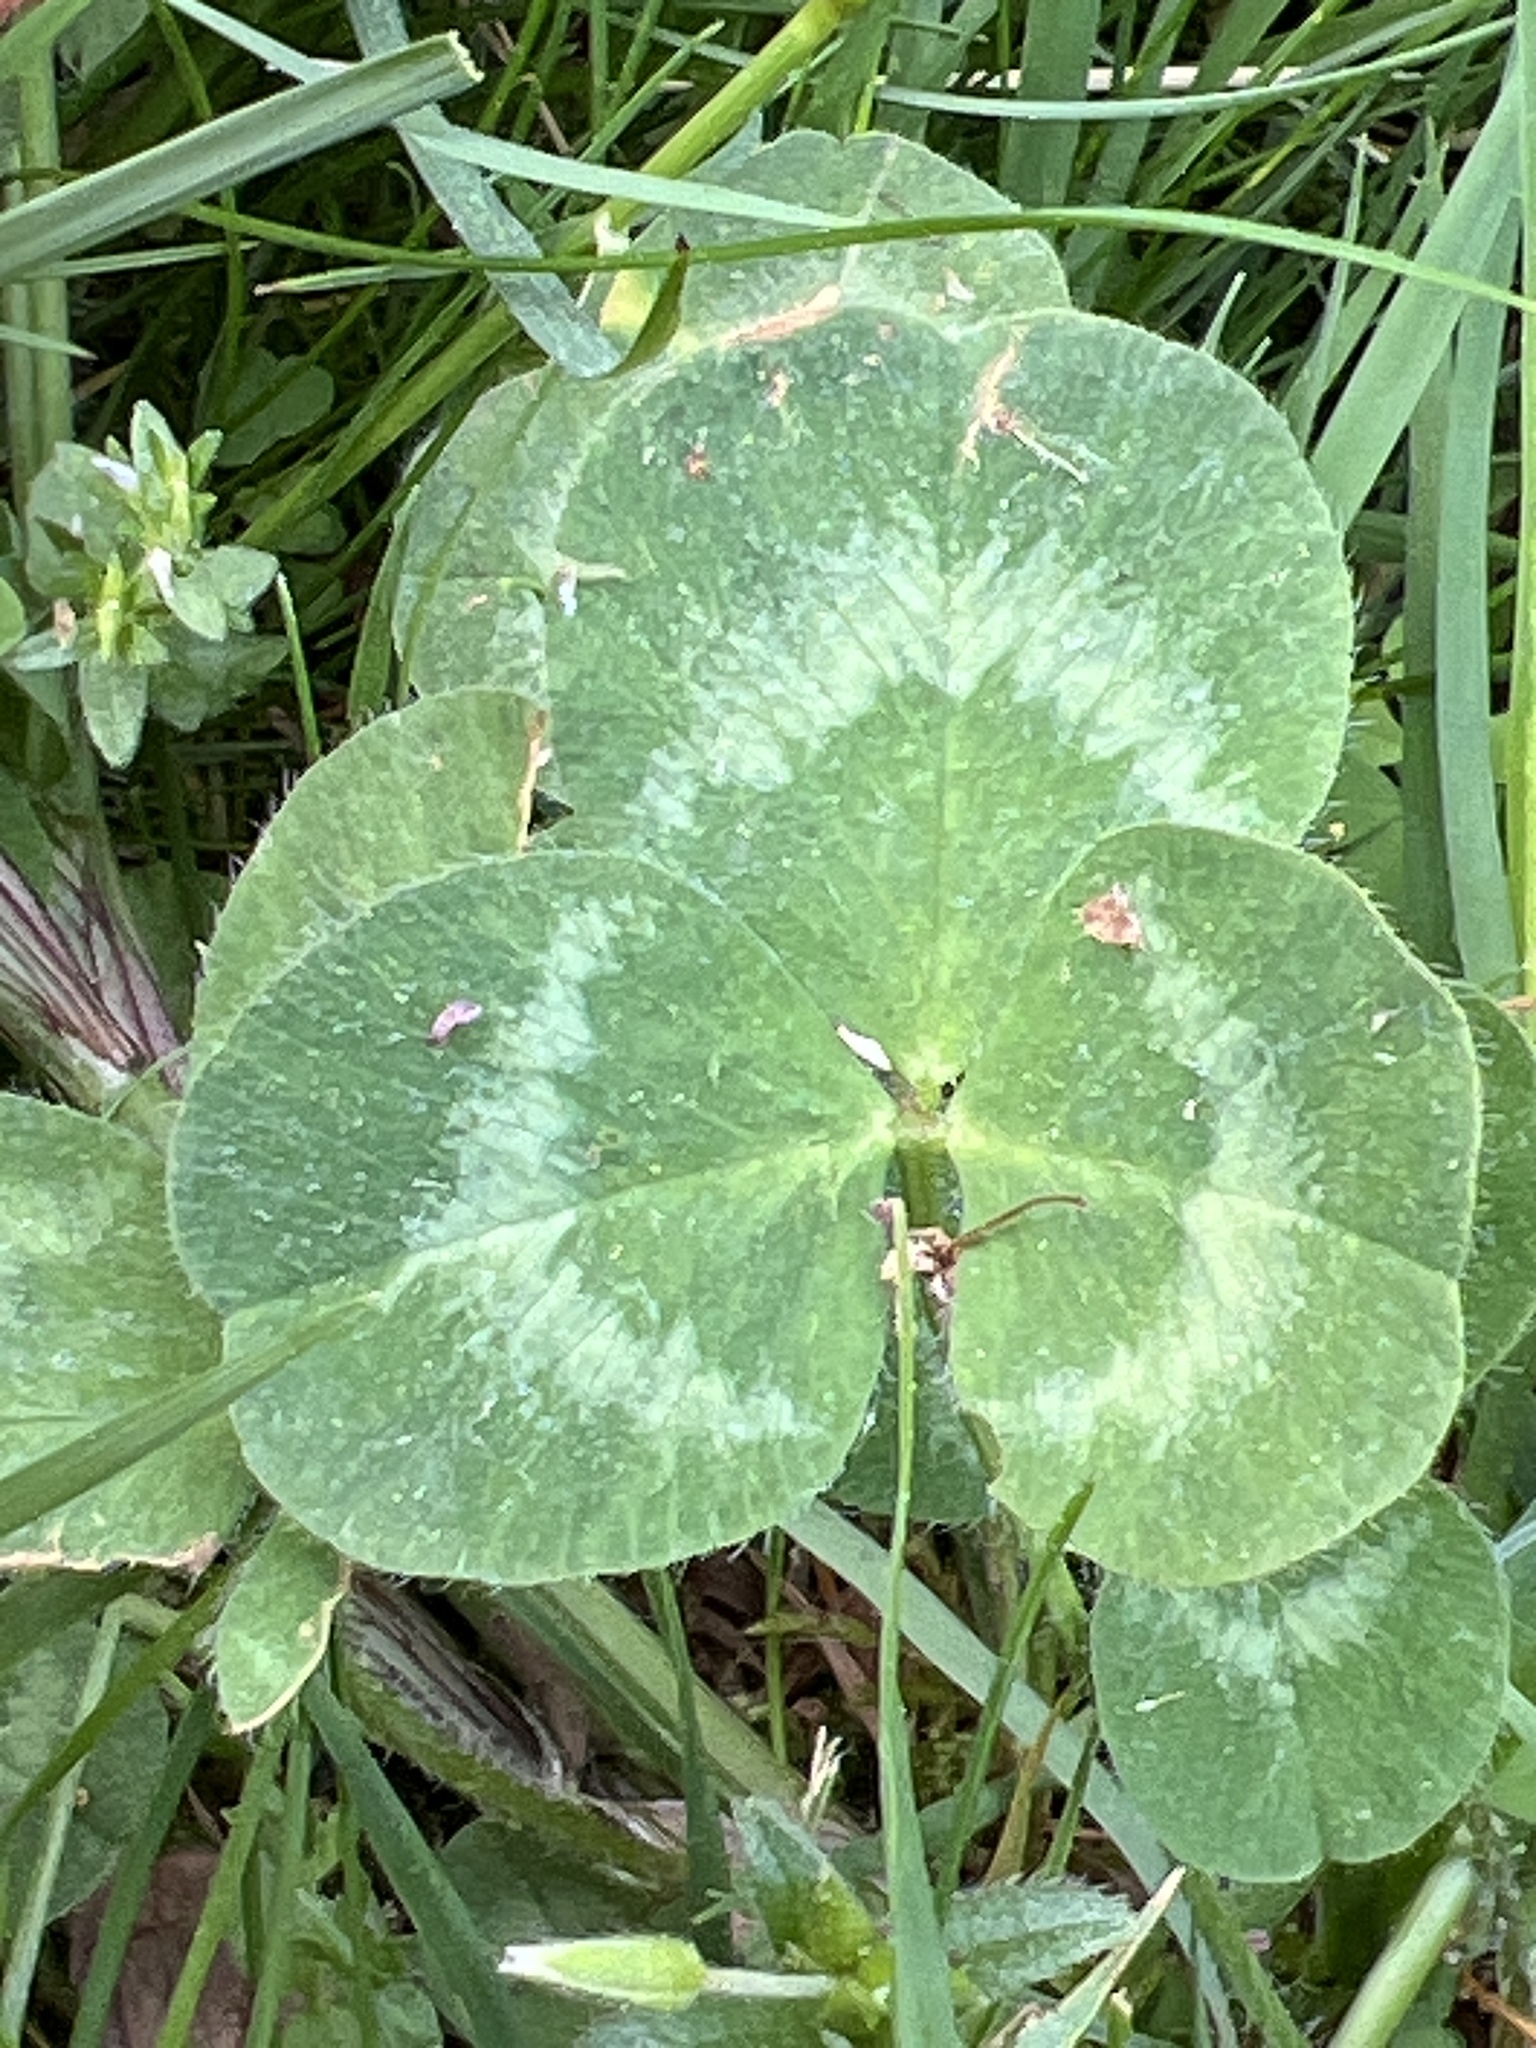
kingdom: Plantae
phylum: Tracheophyta
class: Magnoliopsida
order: Fabales
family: Fabaceae
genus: Trifolium
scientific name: Trifolium pratense
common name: Red clover
